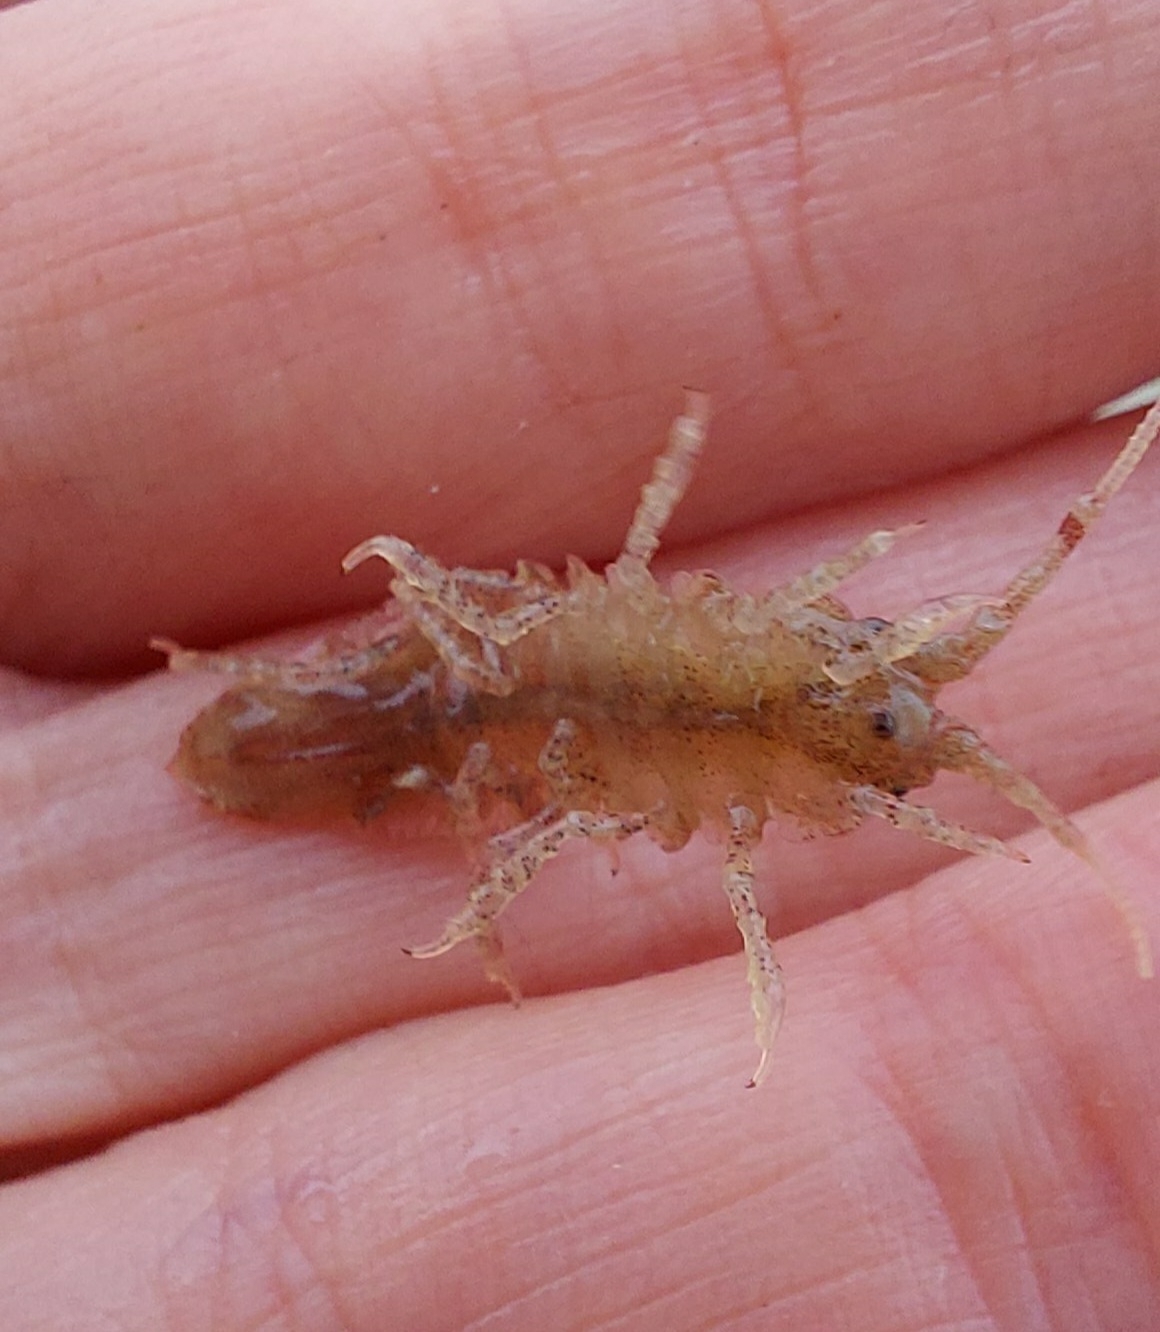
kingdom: Animalia
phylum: Arthropoda
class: Malacostraca
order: Isopoda
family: Idoteidae
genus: Idotea
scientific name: Idotea phosphorea
